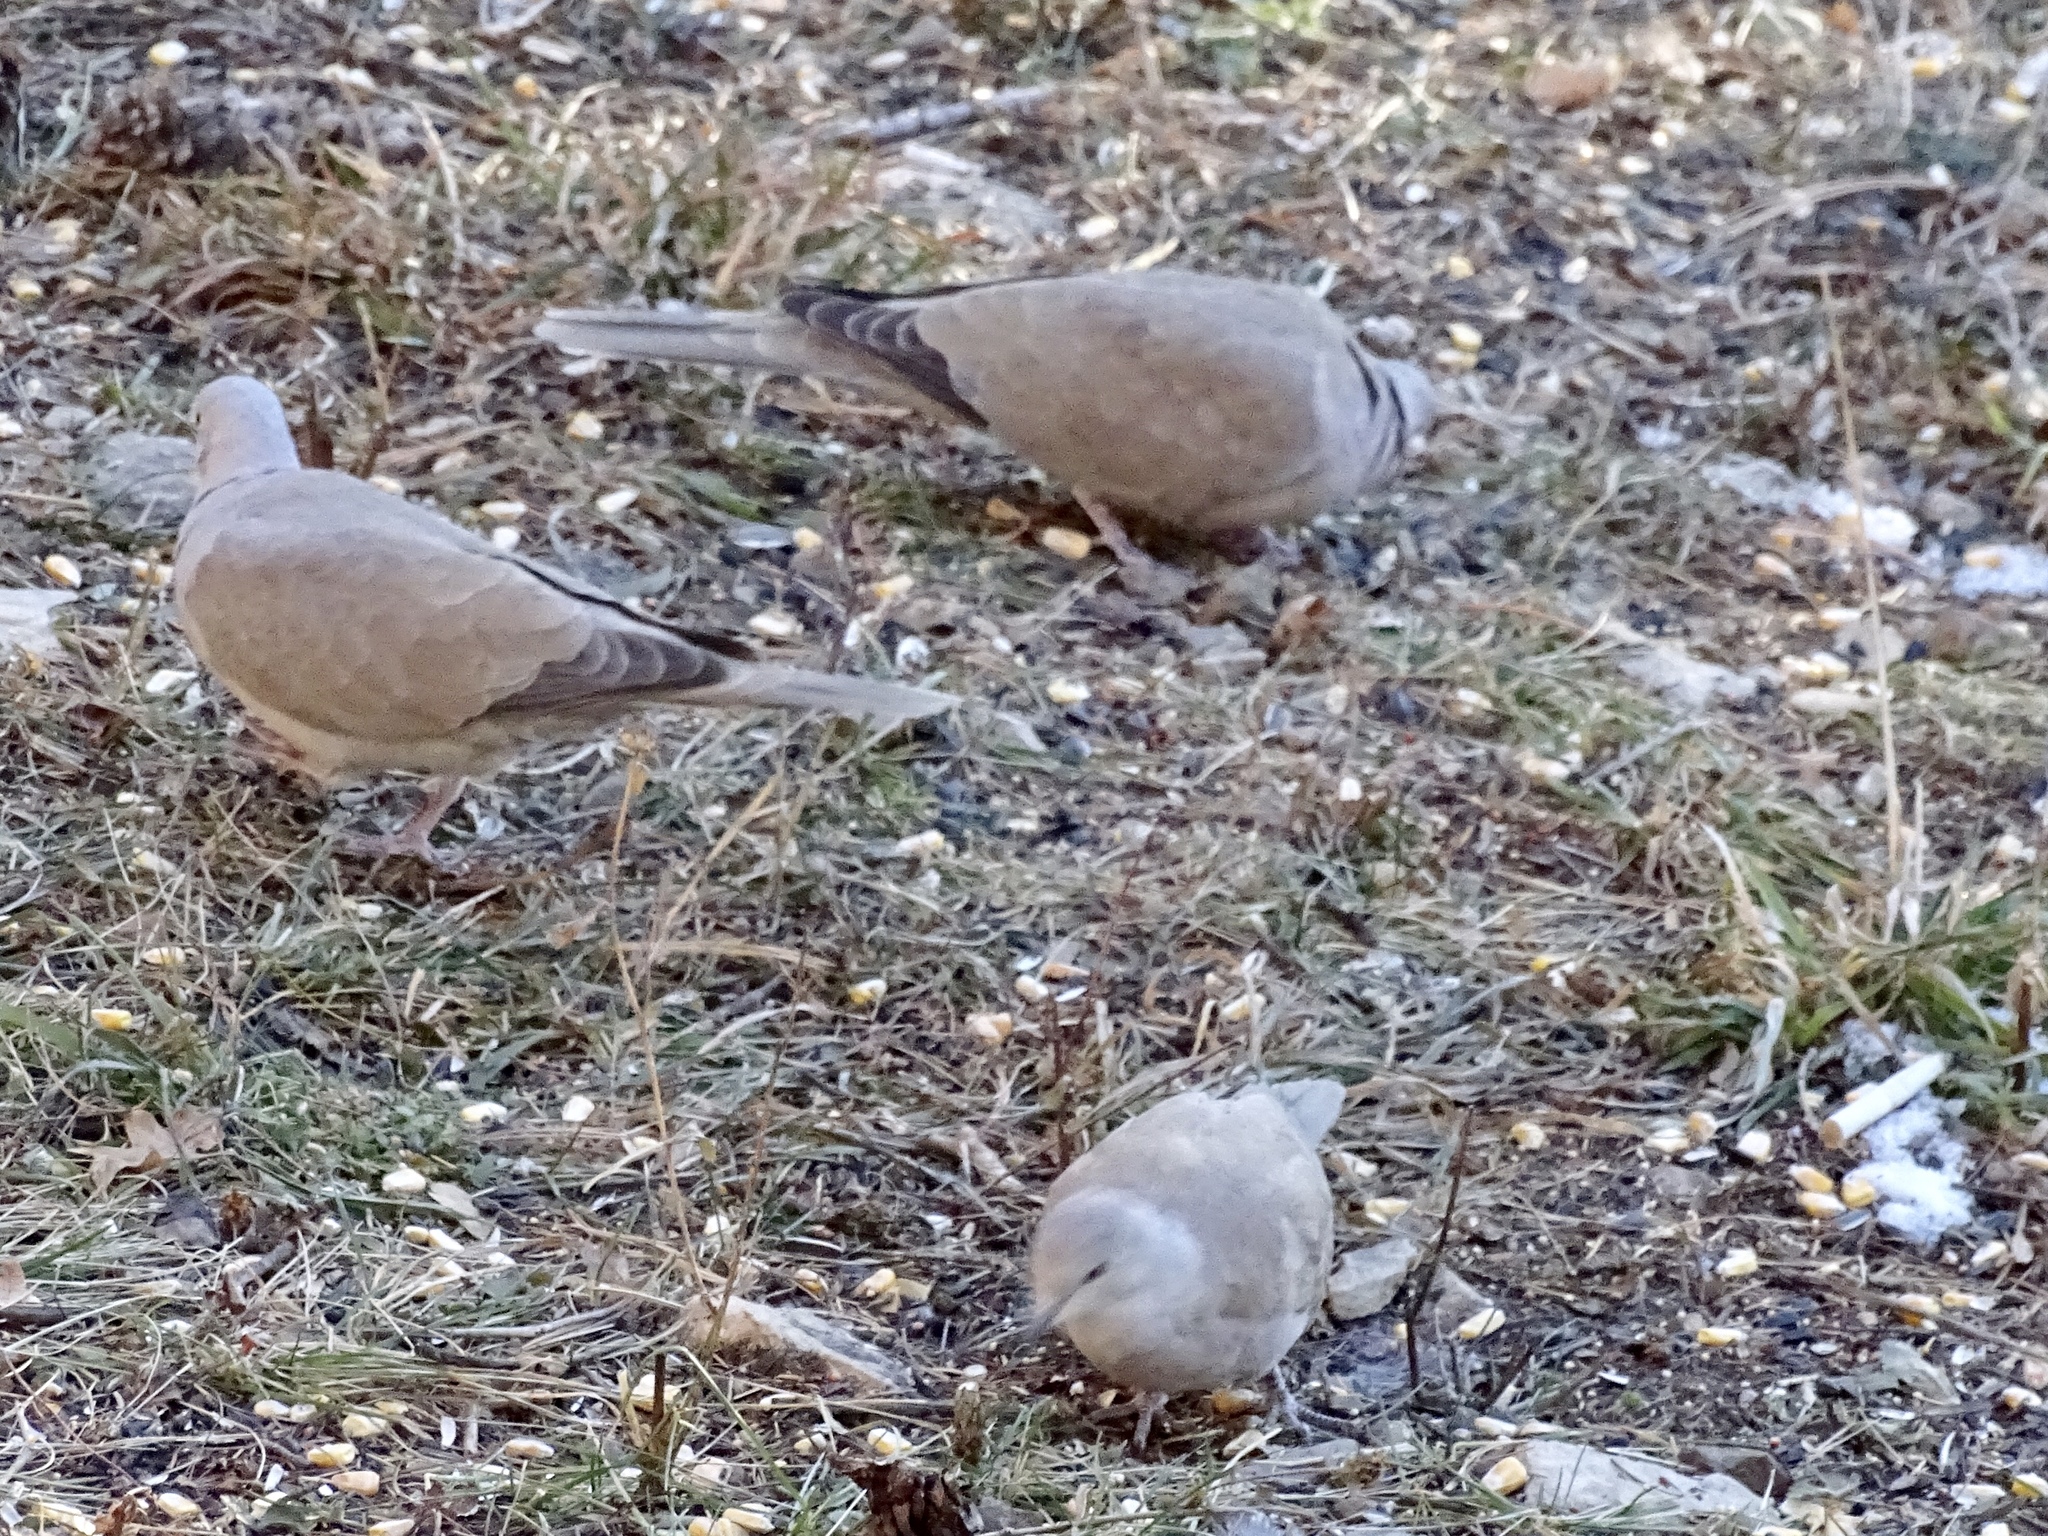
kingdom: Animalia
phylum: Chordata
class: Aves
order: Columbiformes
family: Columbidae
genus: Streptopelia
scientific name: Streptopelia decaocto
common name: Eurasian collared dove
